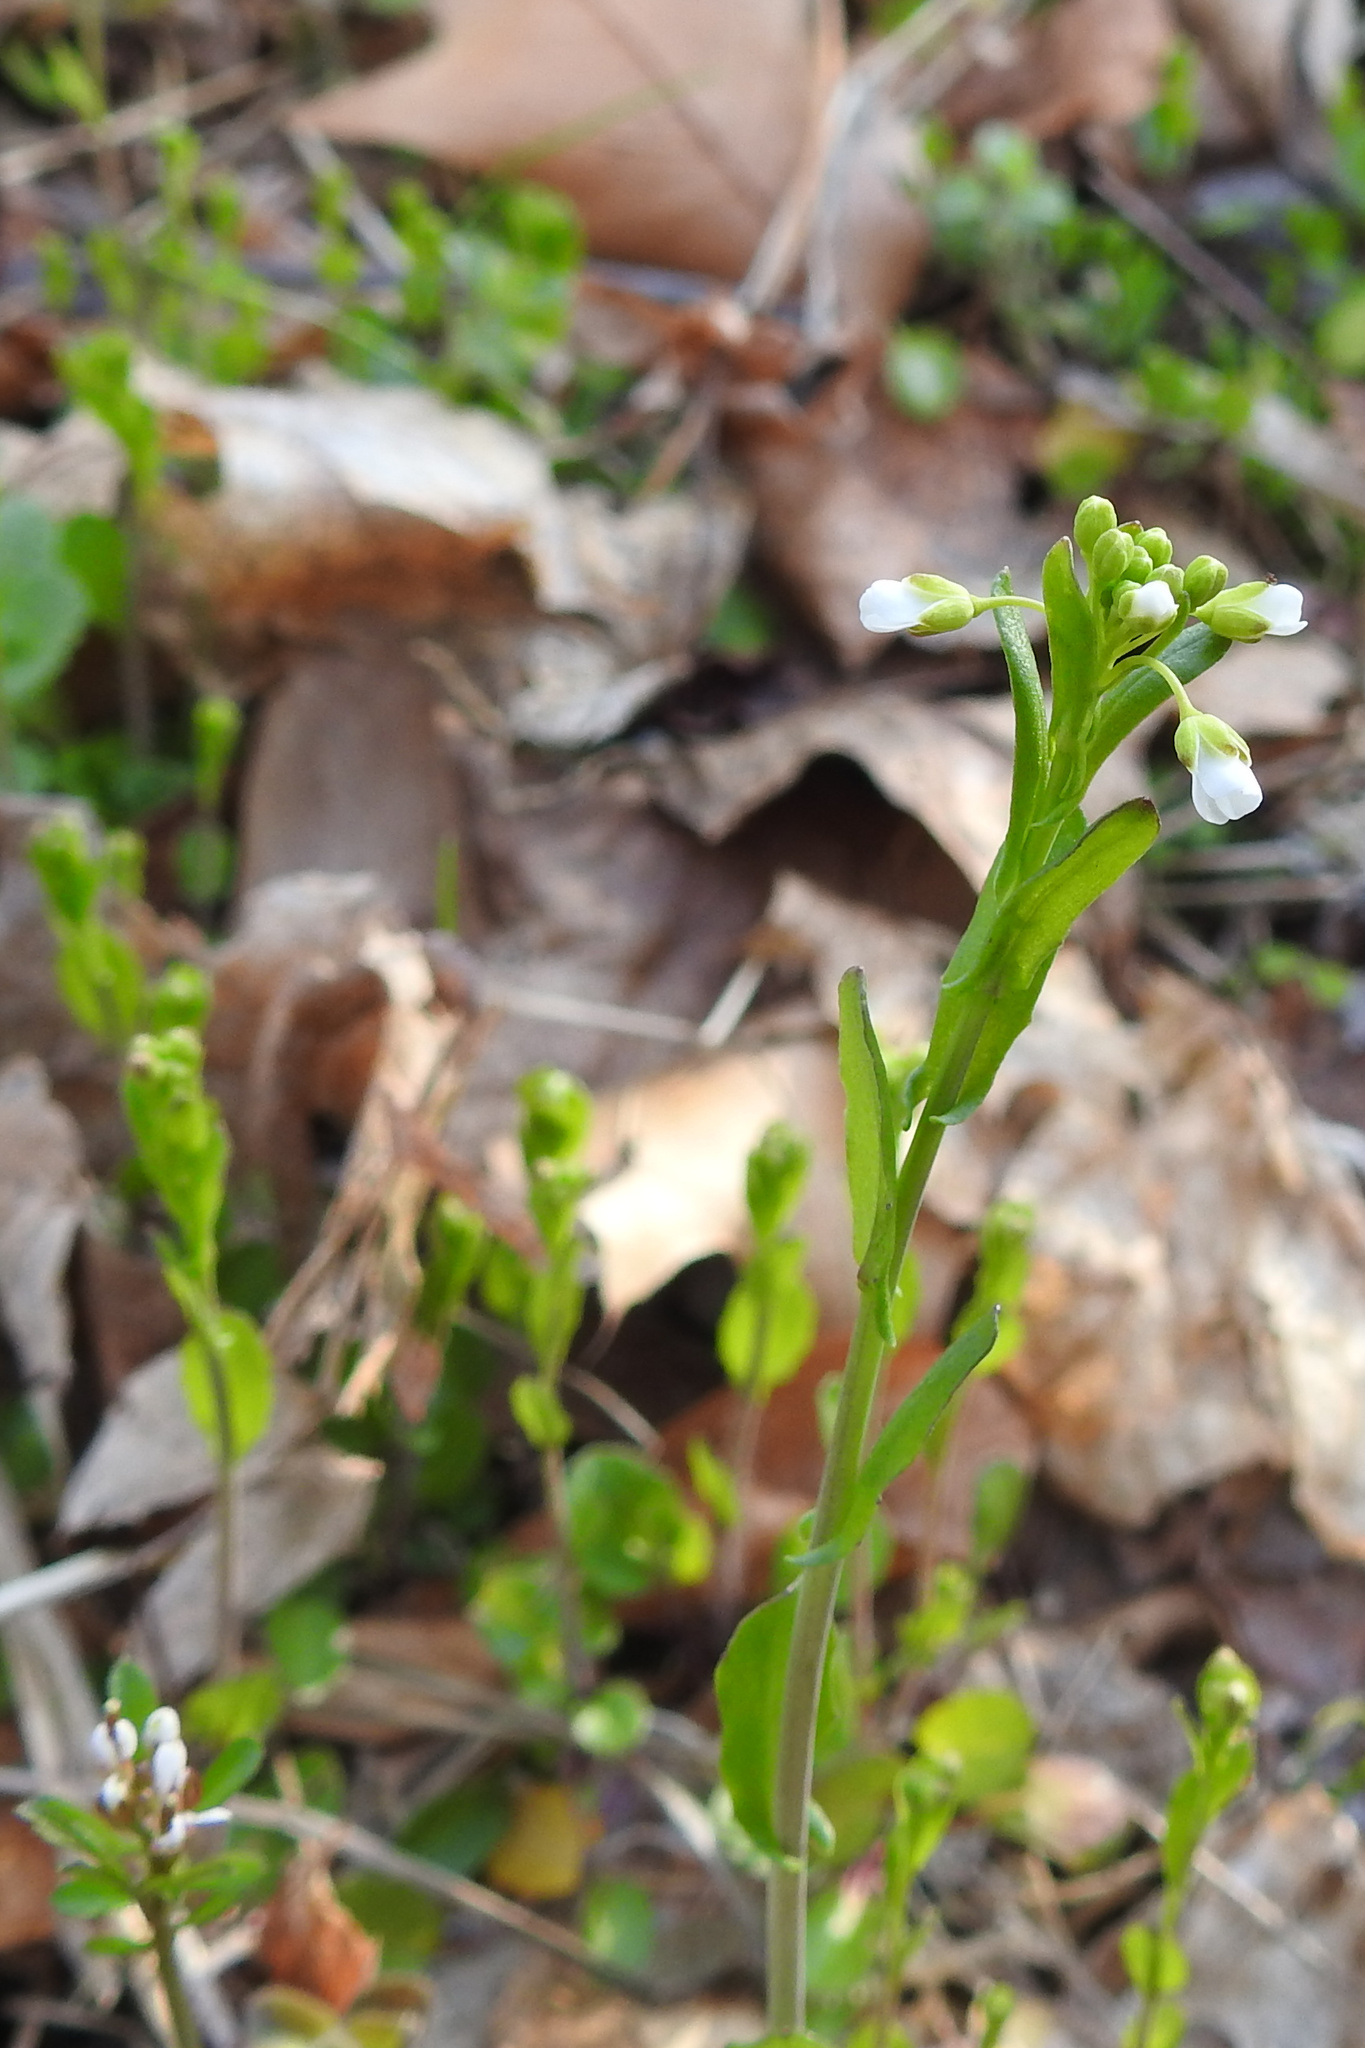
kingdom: Plantae
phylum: Tracheophyta
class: Magnoliopsida
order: Brassicales
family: Brassicaceae
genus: Mummenhoffia
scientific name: Mummenhoffia alliacea
